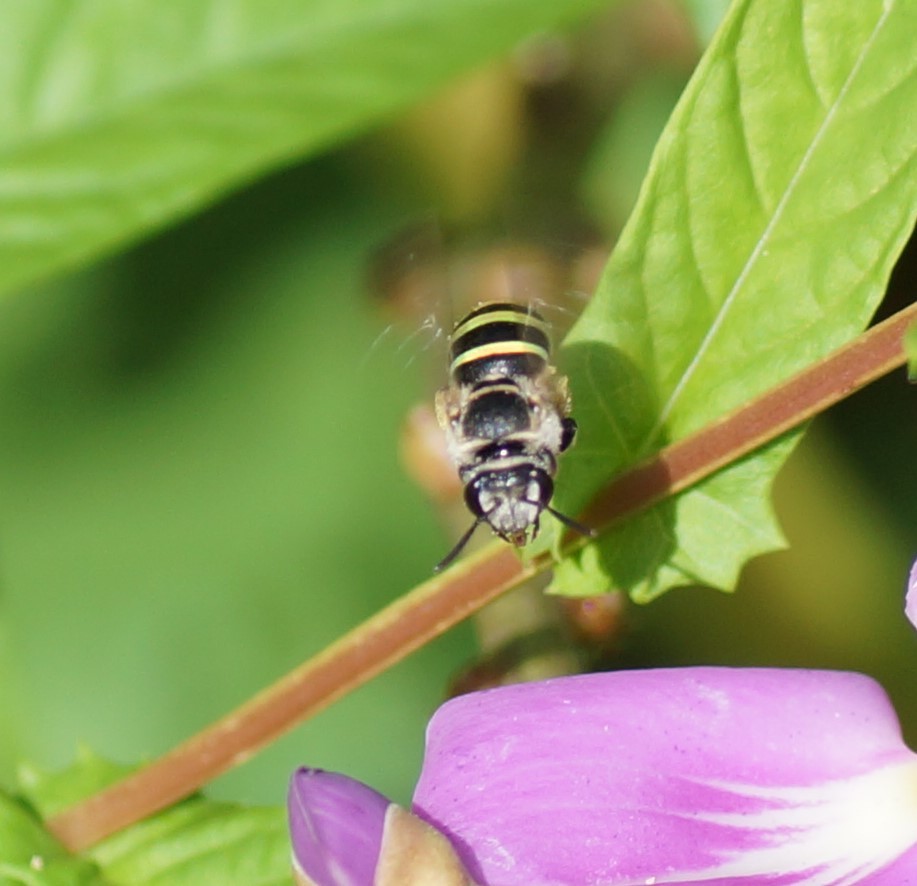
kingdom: Animalia
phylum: Arthropoda
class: Insecta
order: Hymenoptera
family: Halictidae
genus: Nomia
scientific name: Nomia rubroviridis
